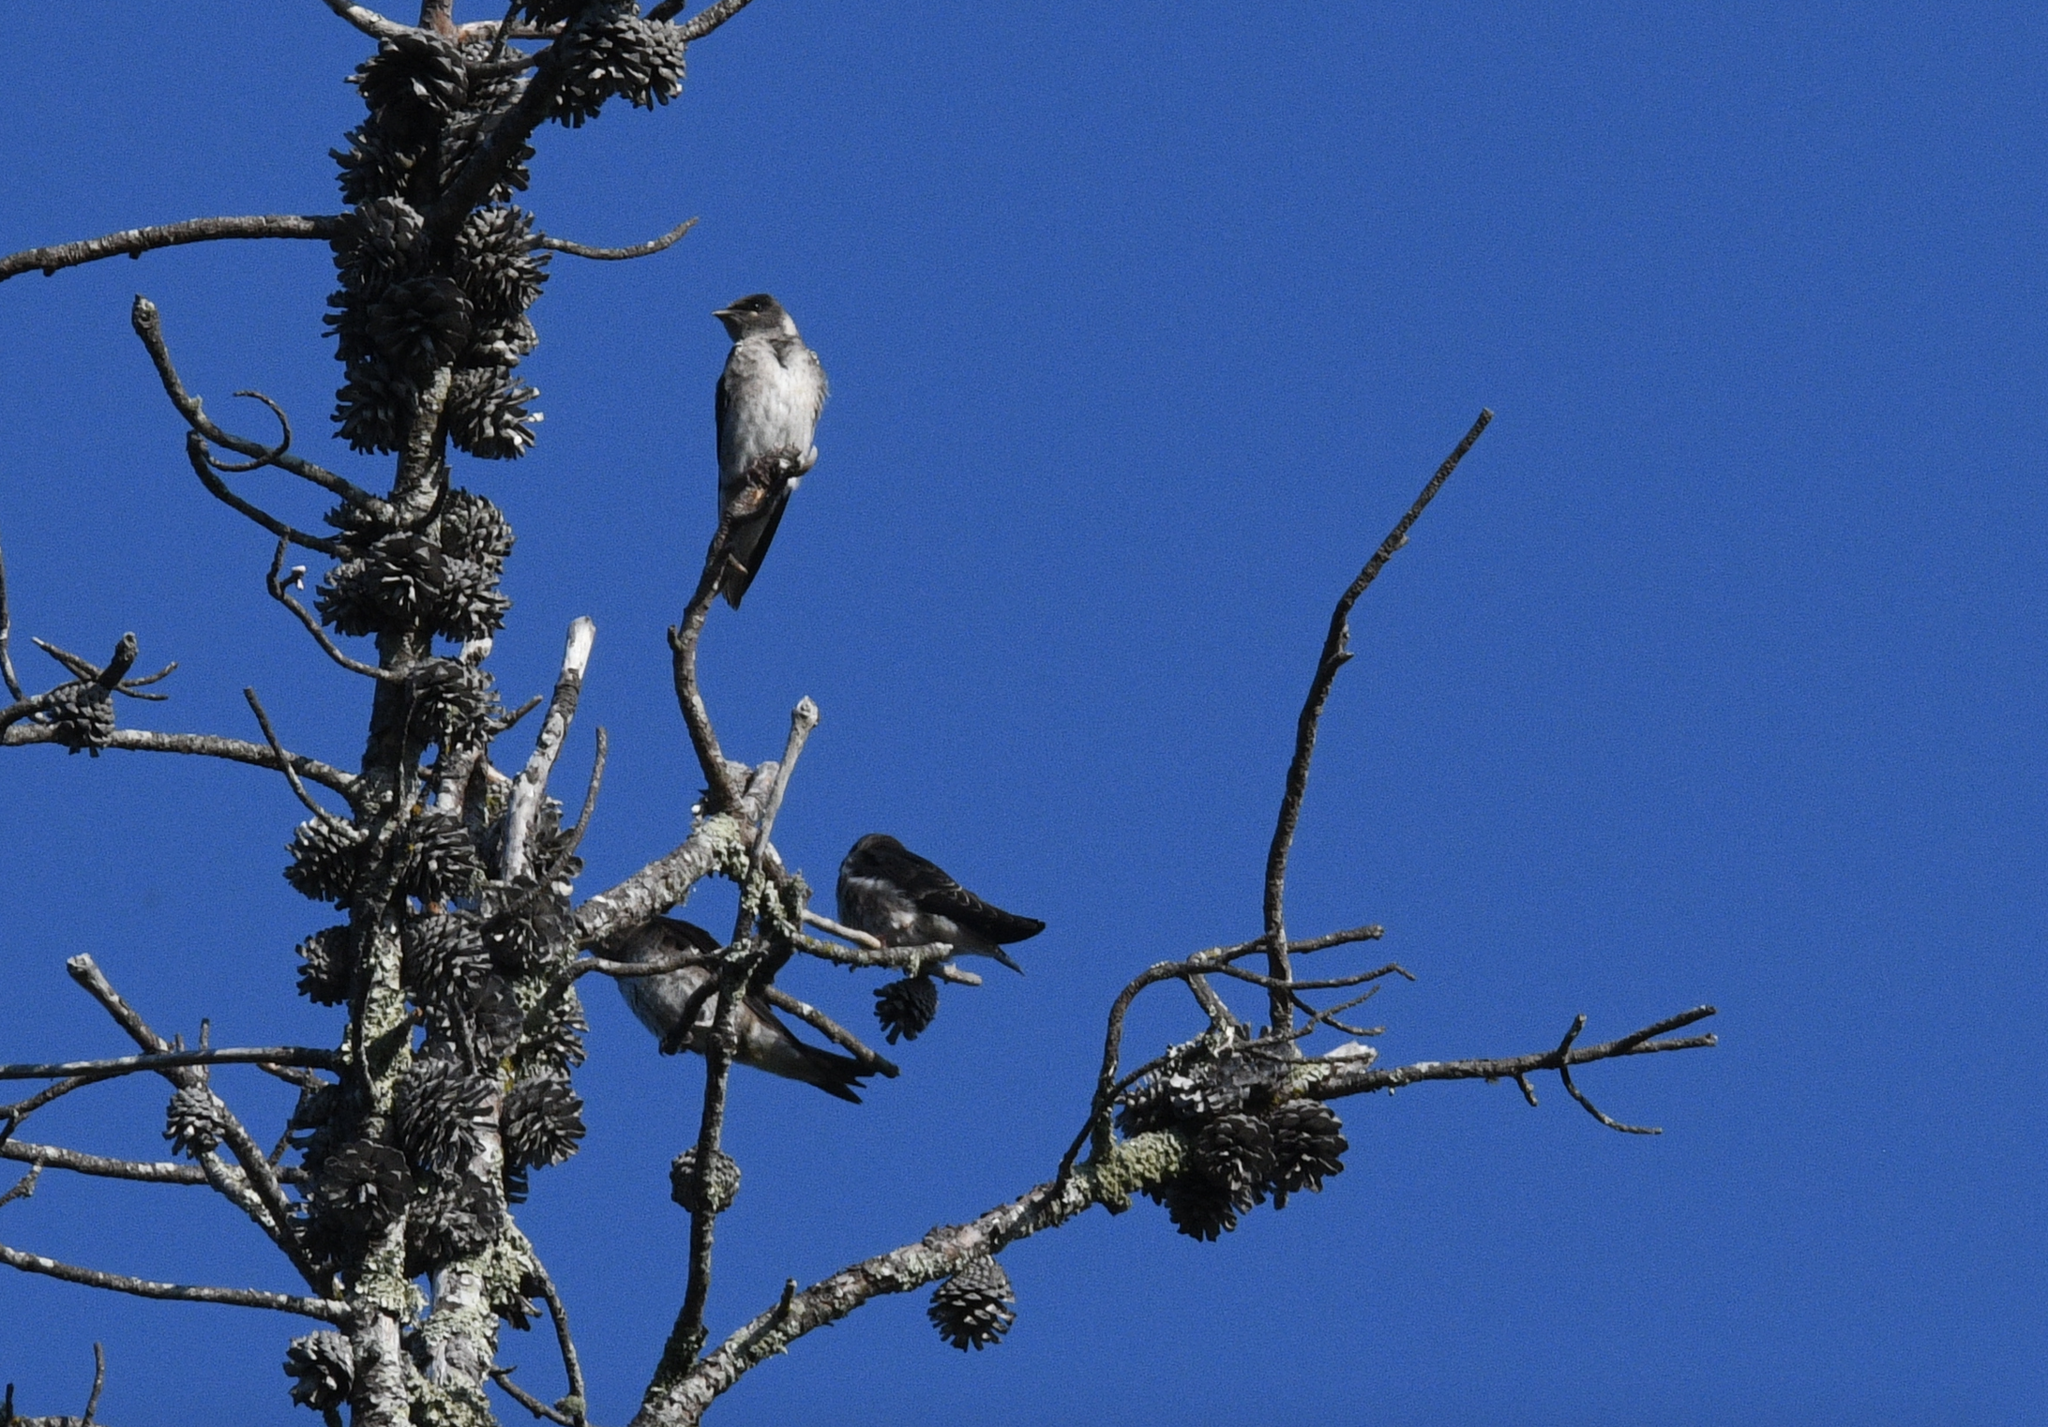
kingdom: Animalia
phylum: Chordata
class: Aves
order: Passeriformes
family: Hirundinidae
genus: Progne
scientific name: Progne subis
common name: Purple martin
